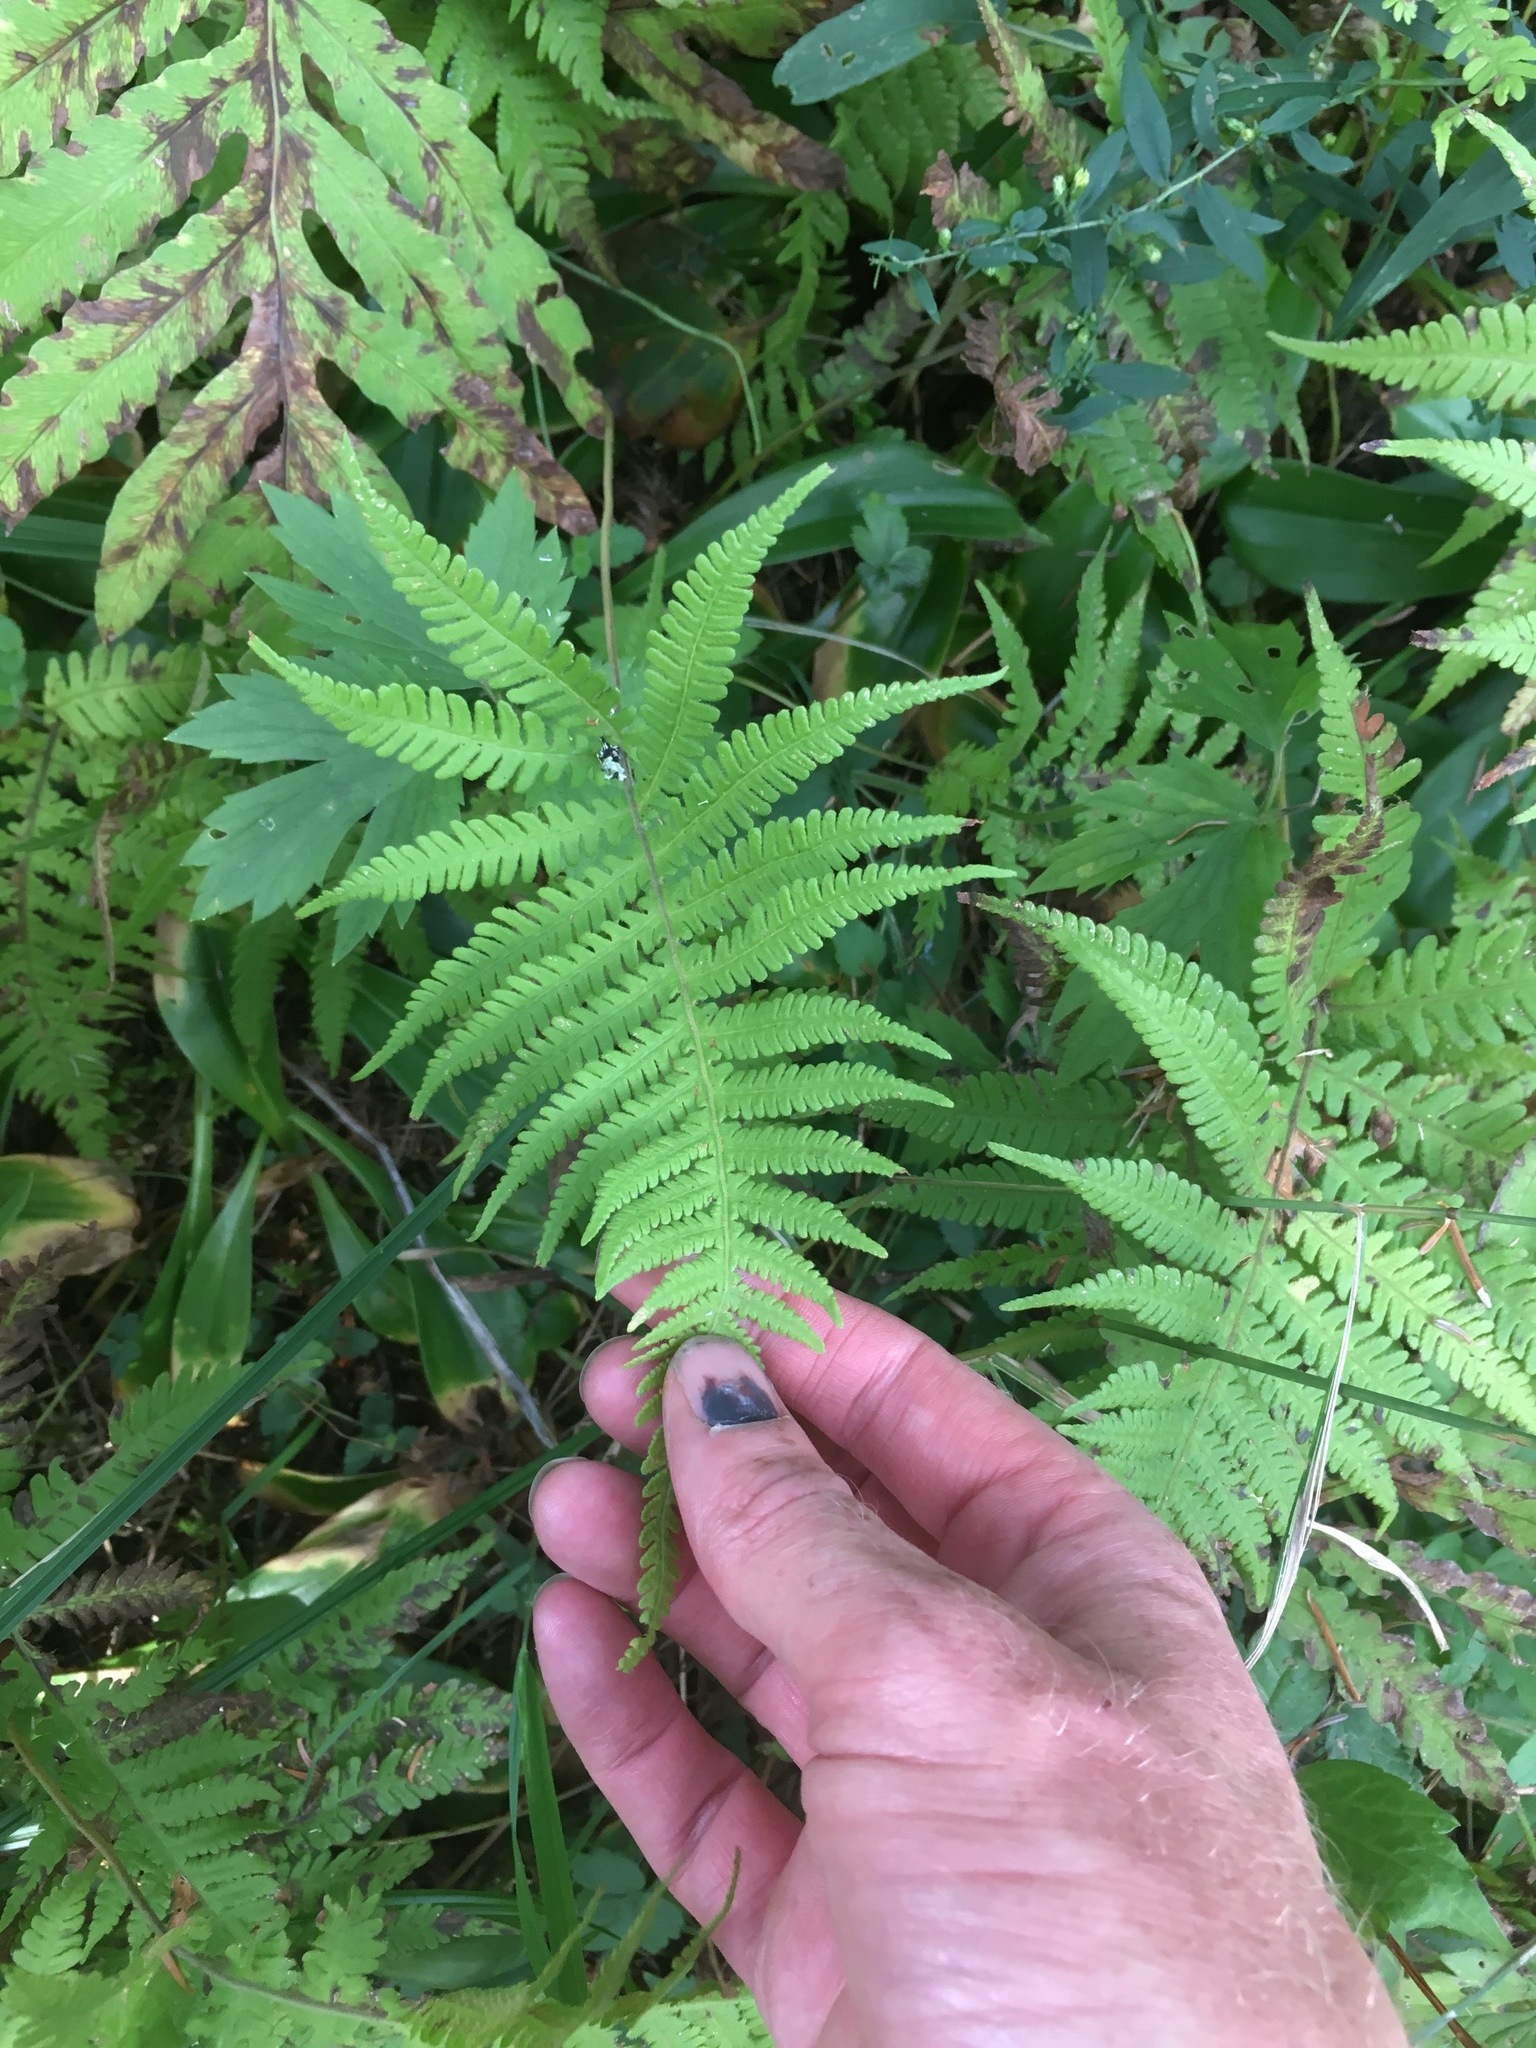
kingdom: Plantae
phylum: Tracheophyta
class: Polypodiopsida
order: Polypodiales
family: Thelypteridaceae
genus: Phegopteris
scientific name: Phegopteris connectilis
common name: Beech fern
